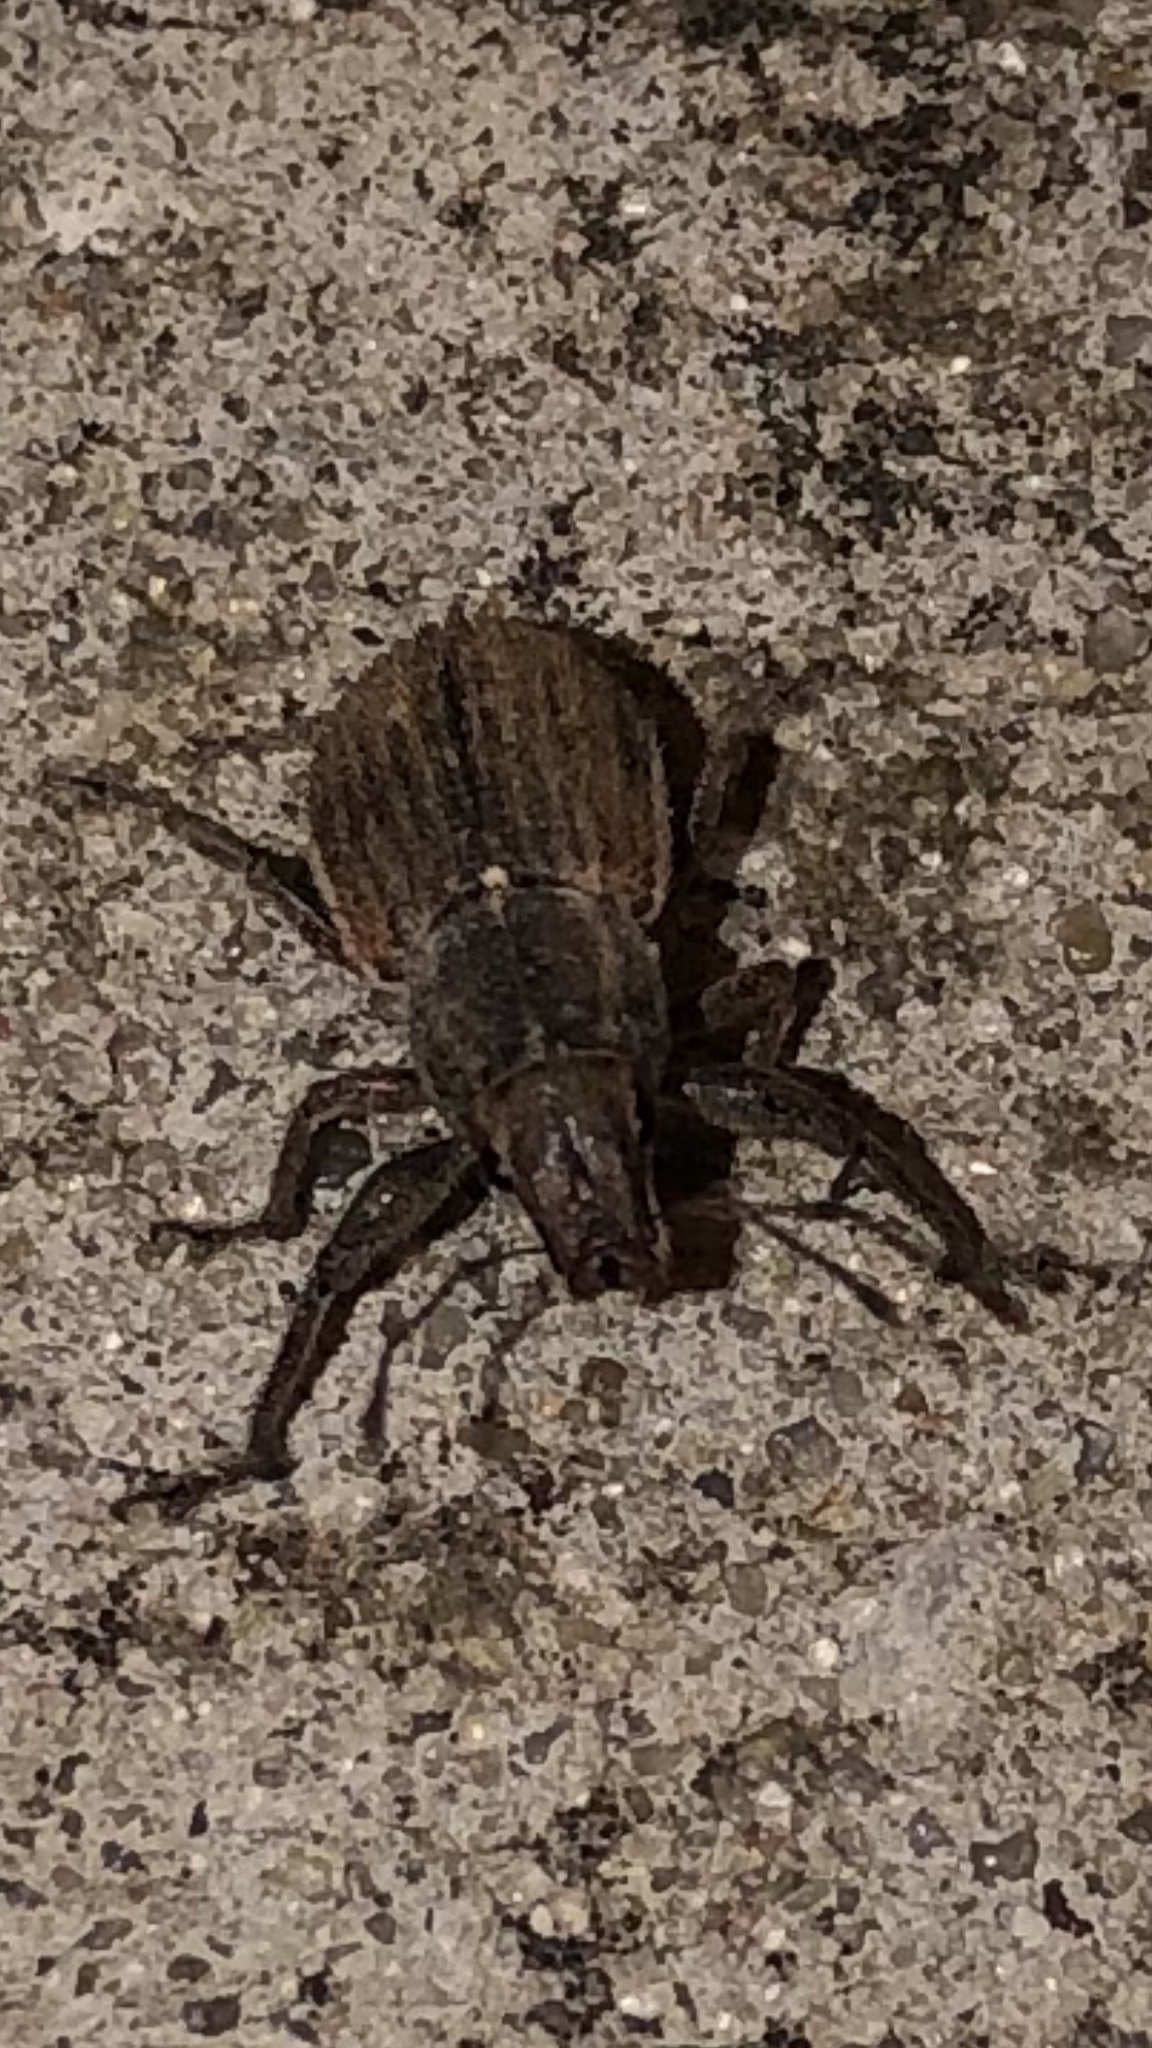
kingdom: Animalia
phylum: Arthropoda
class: Insecta
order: Coleoptera
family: Curculionidae
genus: Naupactus
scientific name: Naupactus leucoloma
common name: Whitefringed beetle
